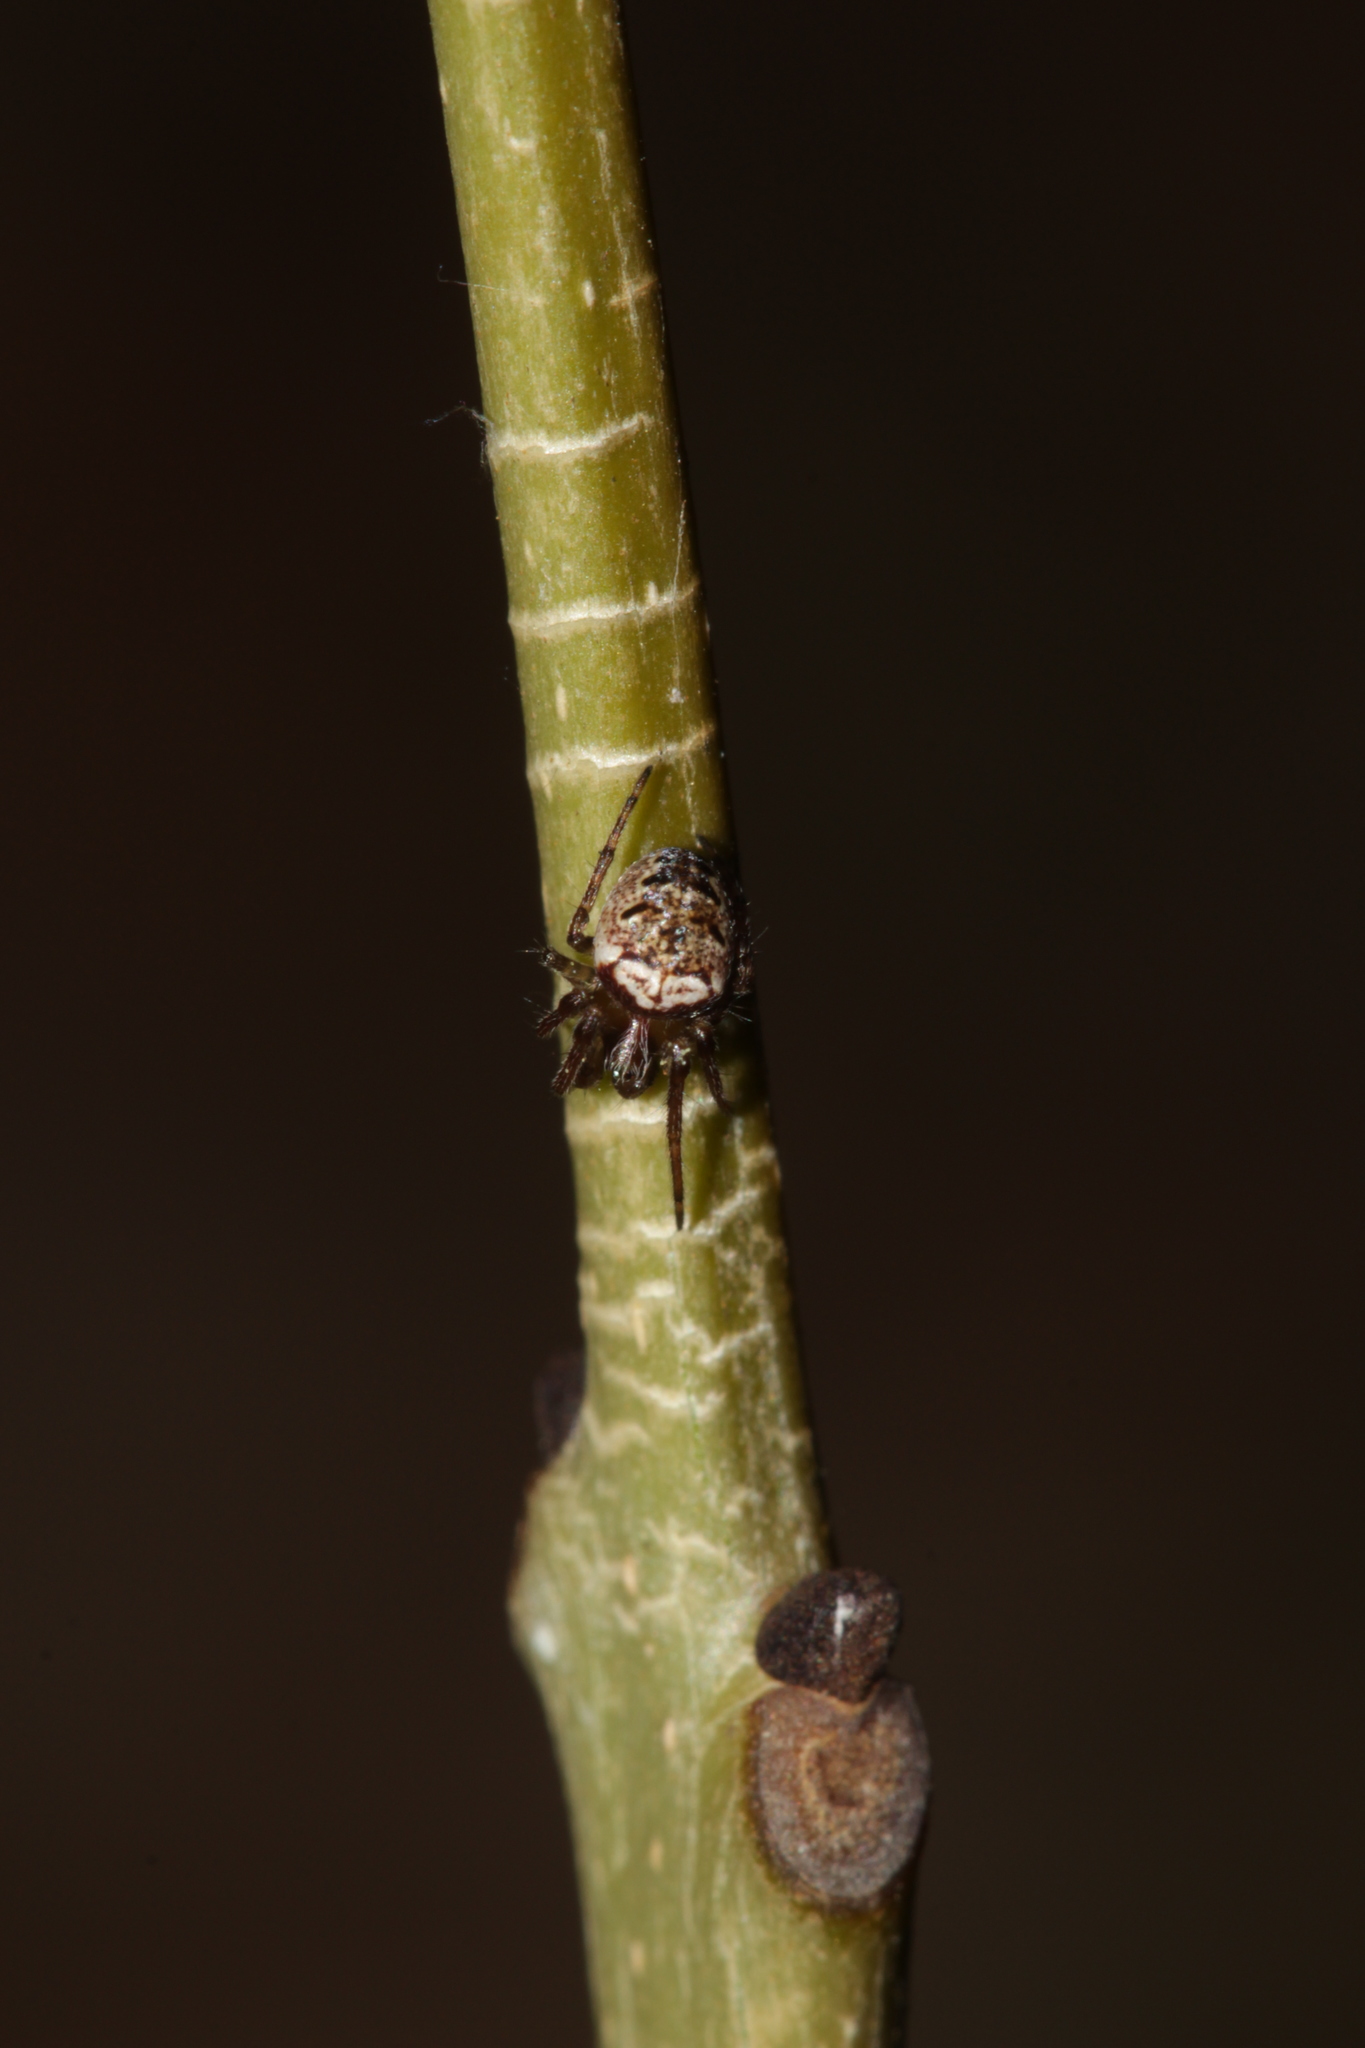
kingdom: Animalia
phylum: Arthropoda
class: Arachnida
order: Araneae
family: Araneidae
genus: Zilla
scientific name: Zilla diodia
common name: Zilla diodia
